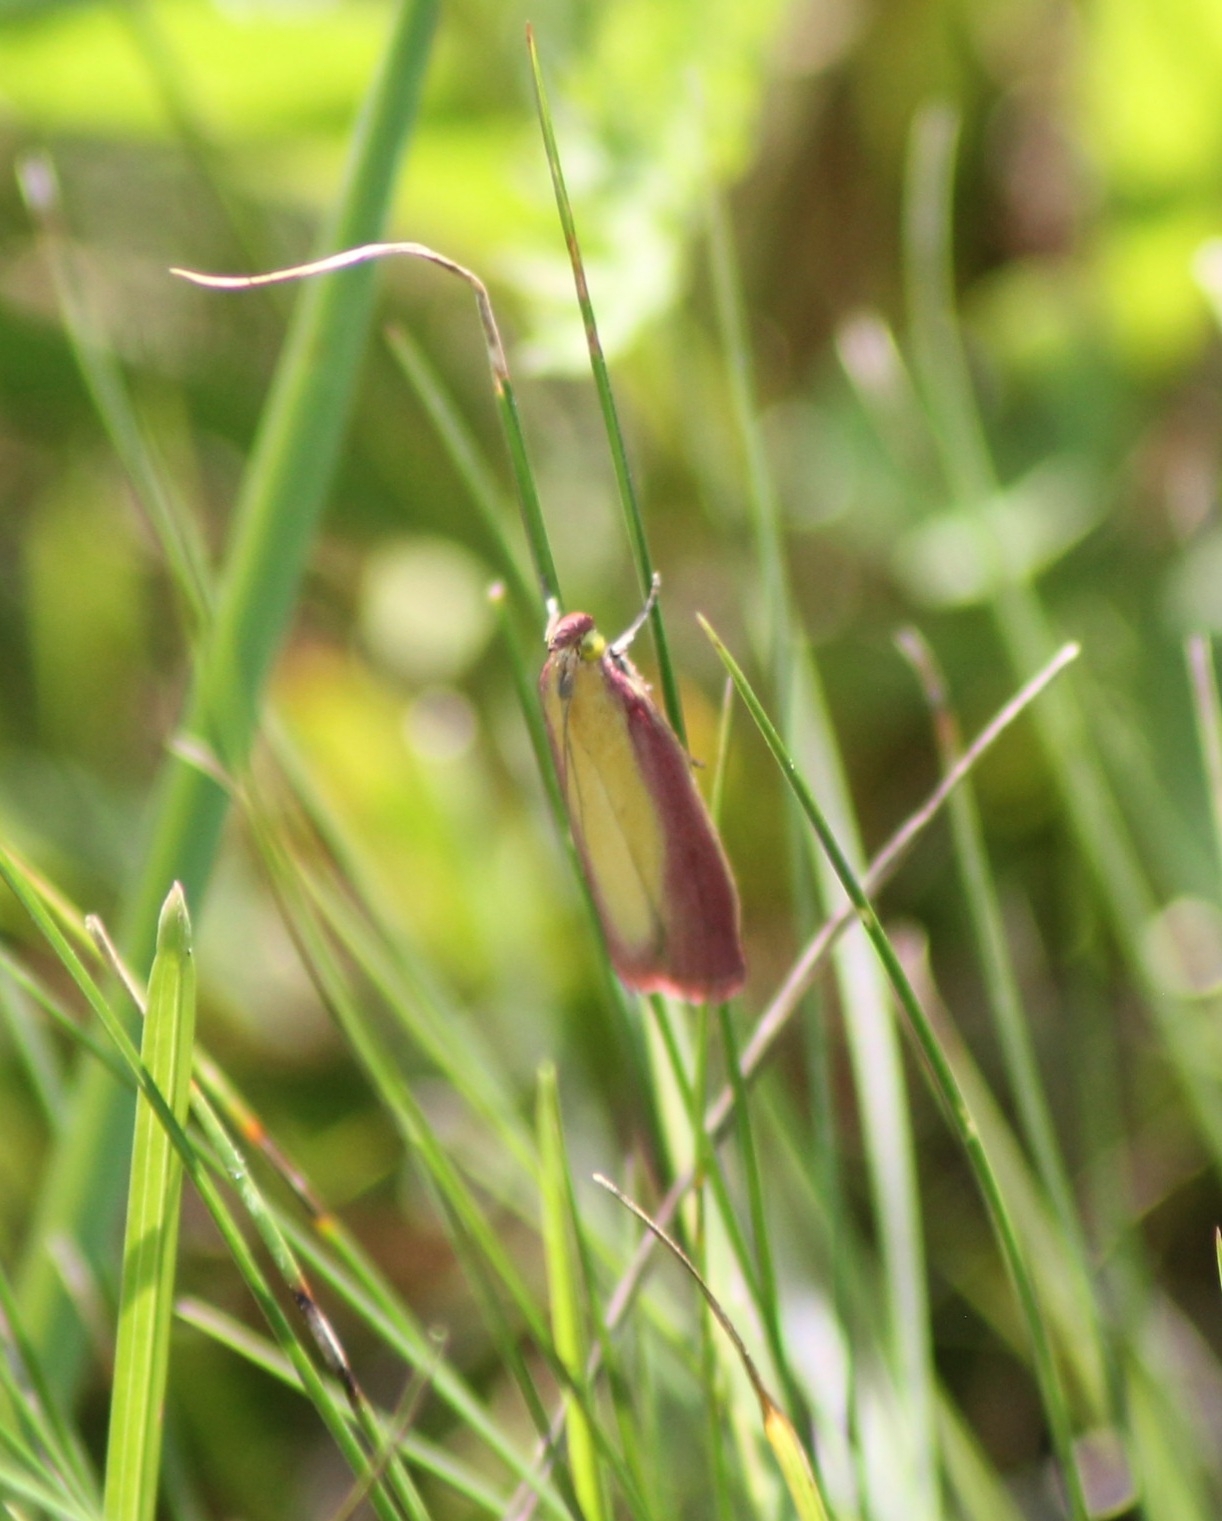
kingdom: Animalia
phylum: Arthropoda
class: Insecta
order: Lepidoptera
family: Pyralidae
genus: Oncocera
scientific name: Oncocera semirubella
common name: Rosy-striped knot-horn
